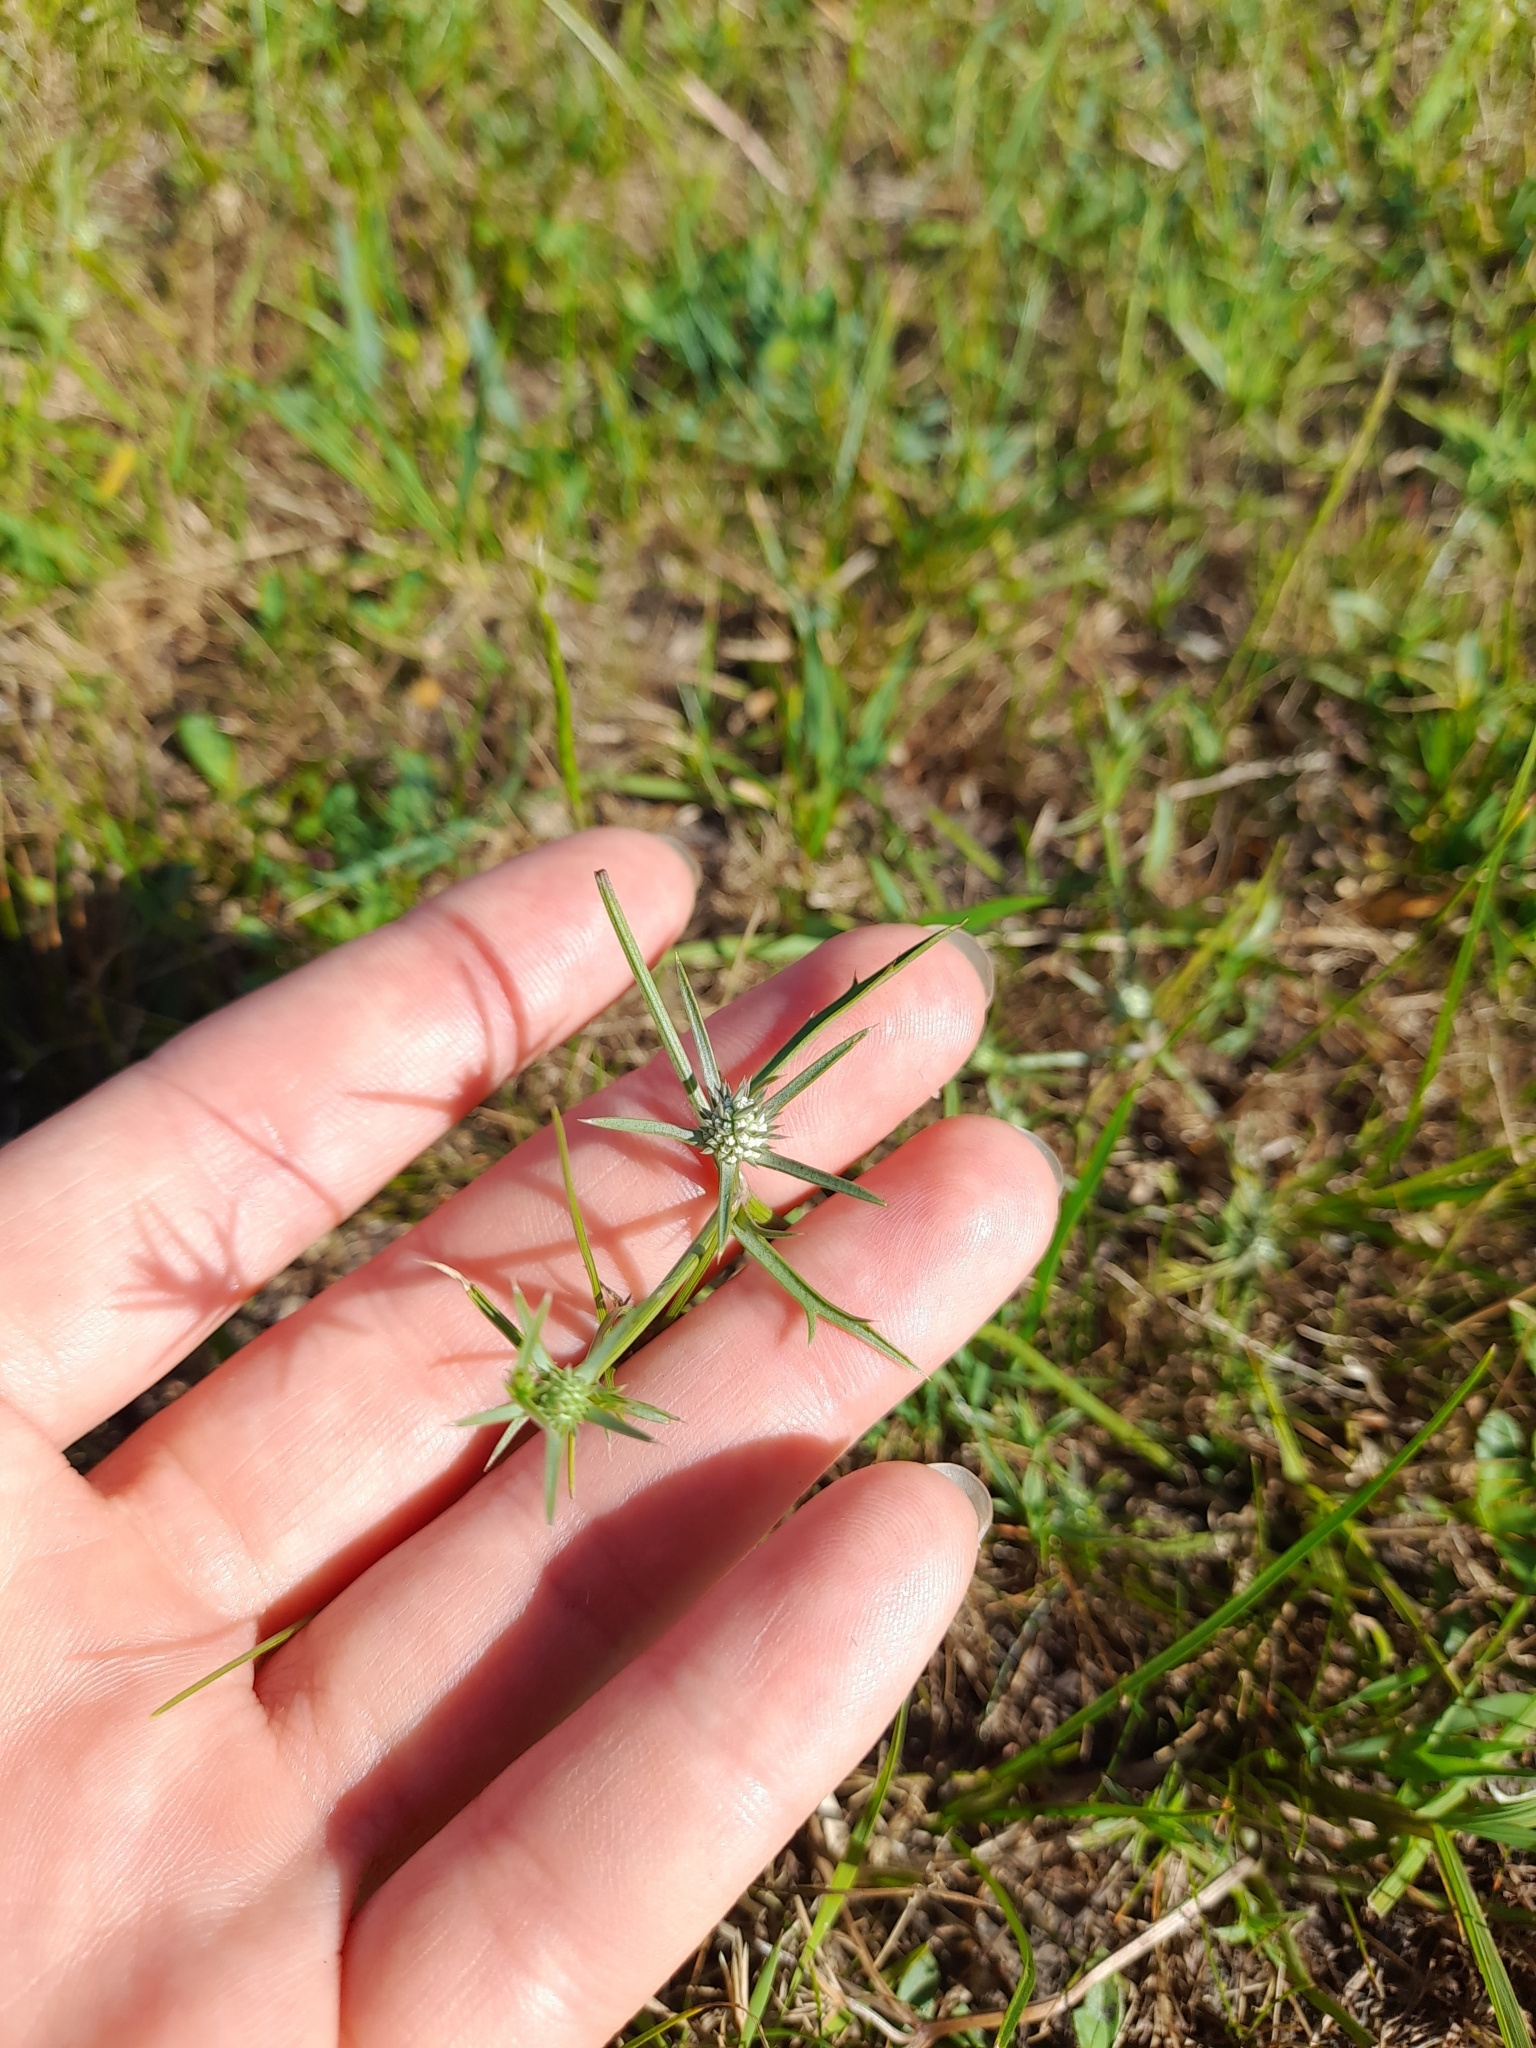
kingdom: Plantae
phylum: Tracheophyta
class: Magnoliopsida
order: Apiales
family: Apiaceae
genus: Eryngium
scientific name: Eryngium echinatum
